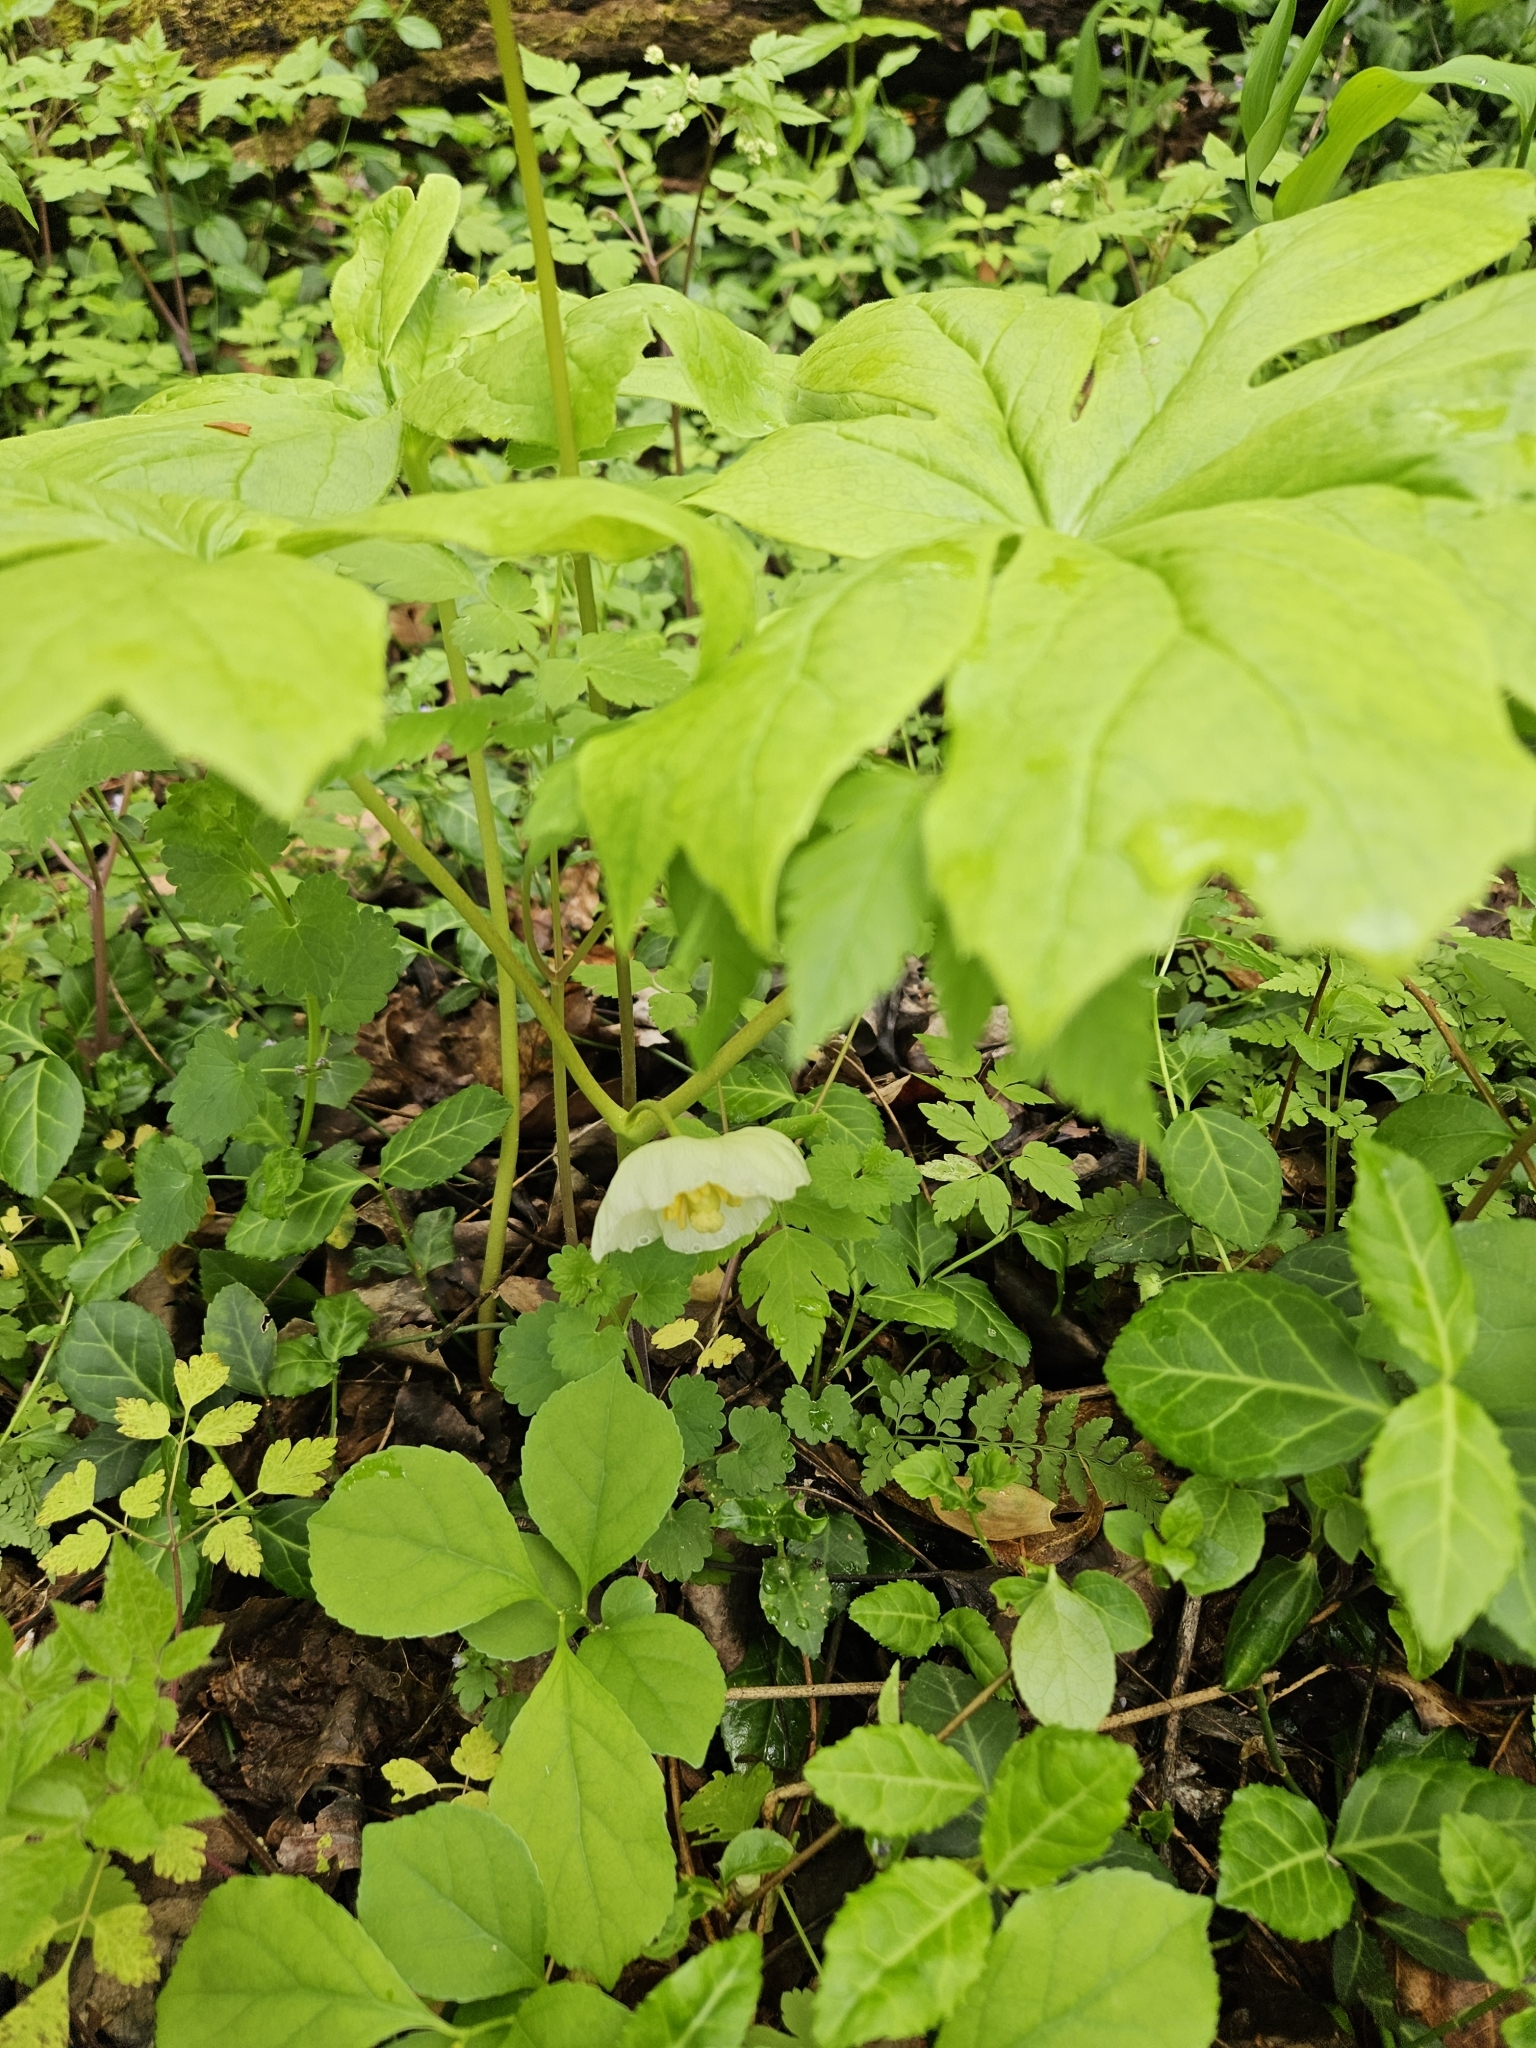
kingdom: Plantae
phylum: Tracheophyta
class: Magnoliopsida
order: Ranunculales
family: Berberidaceae
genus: Podophyllum
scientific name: Podophyllum peltatum
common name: Wild mandrake
